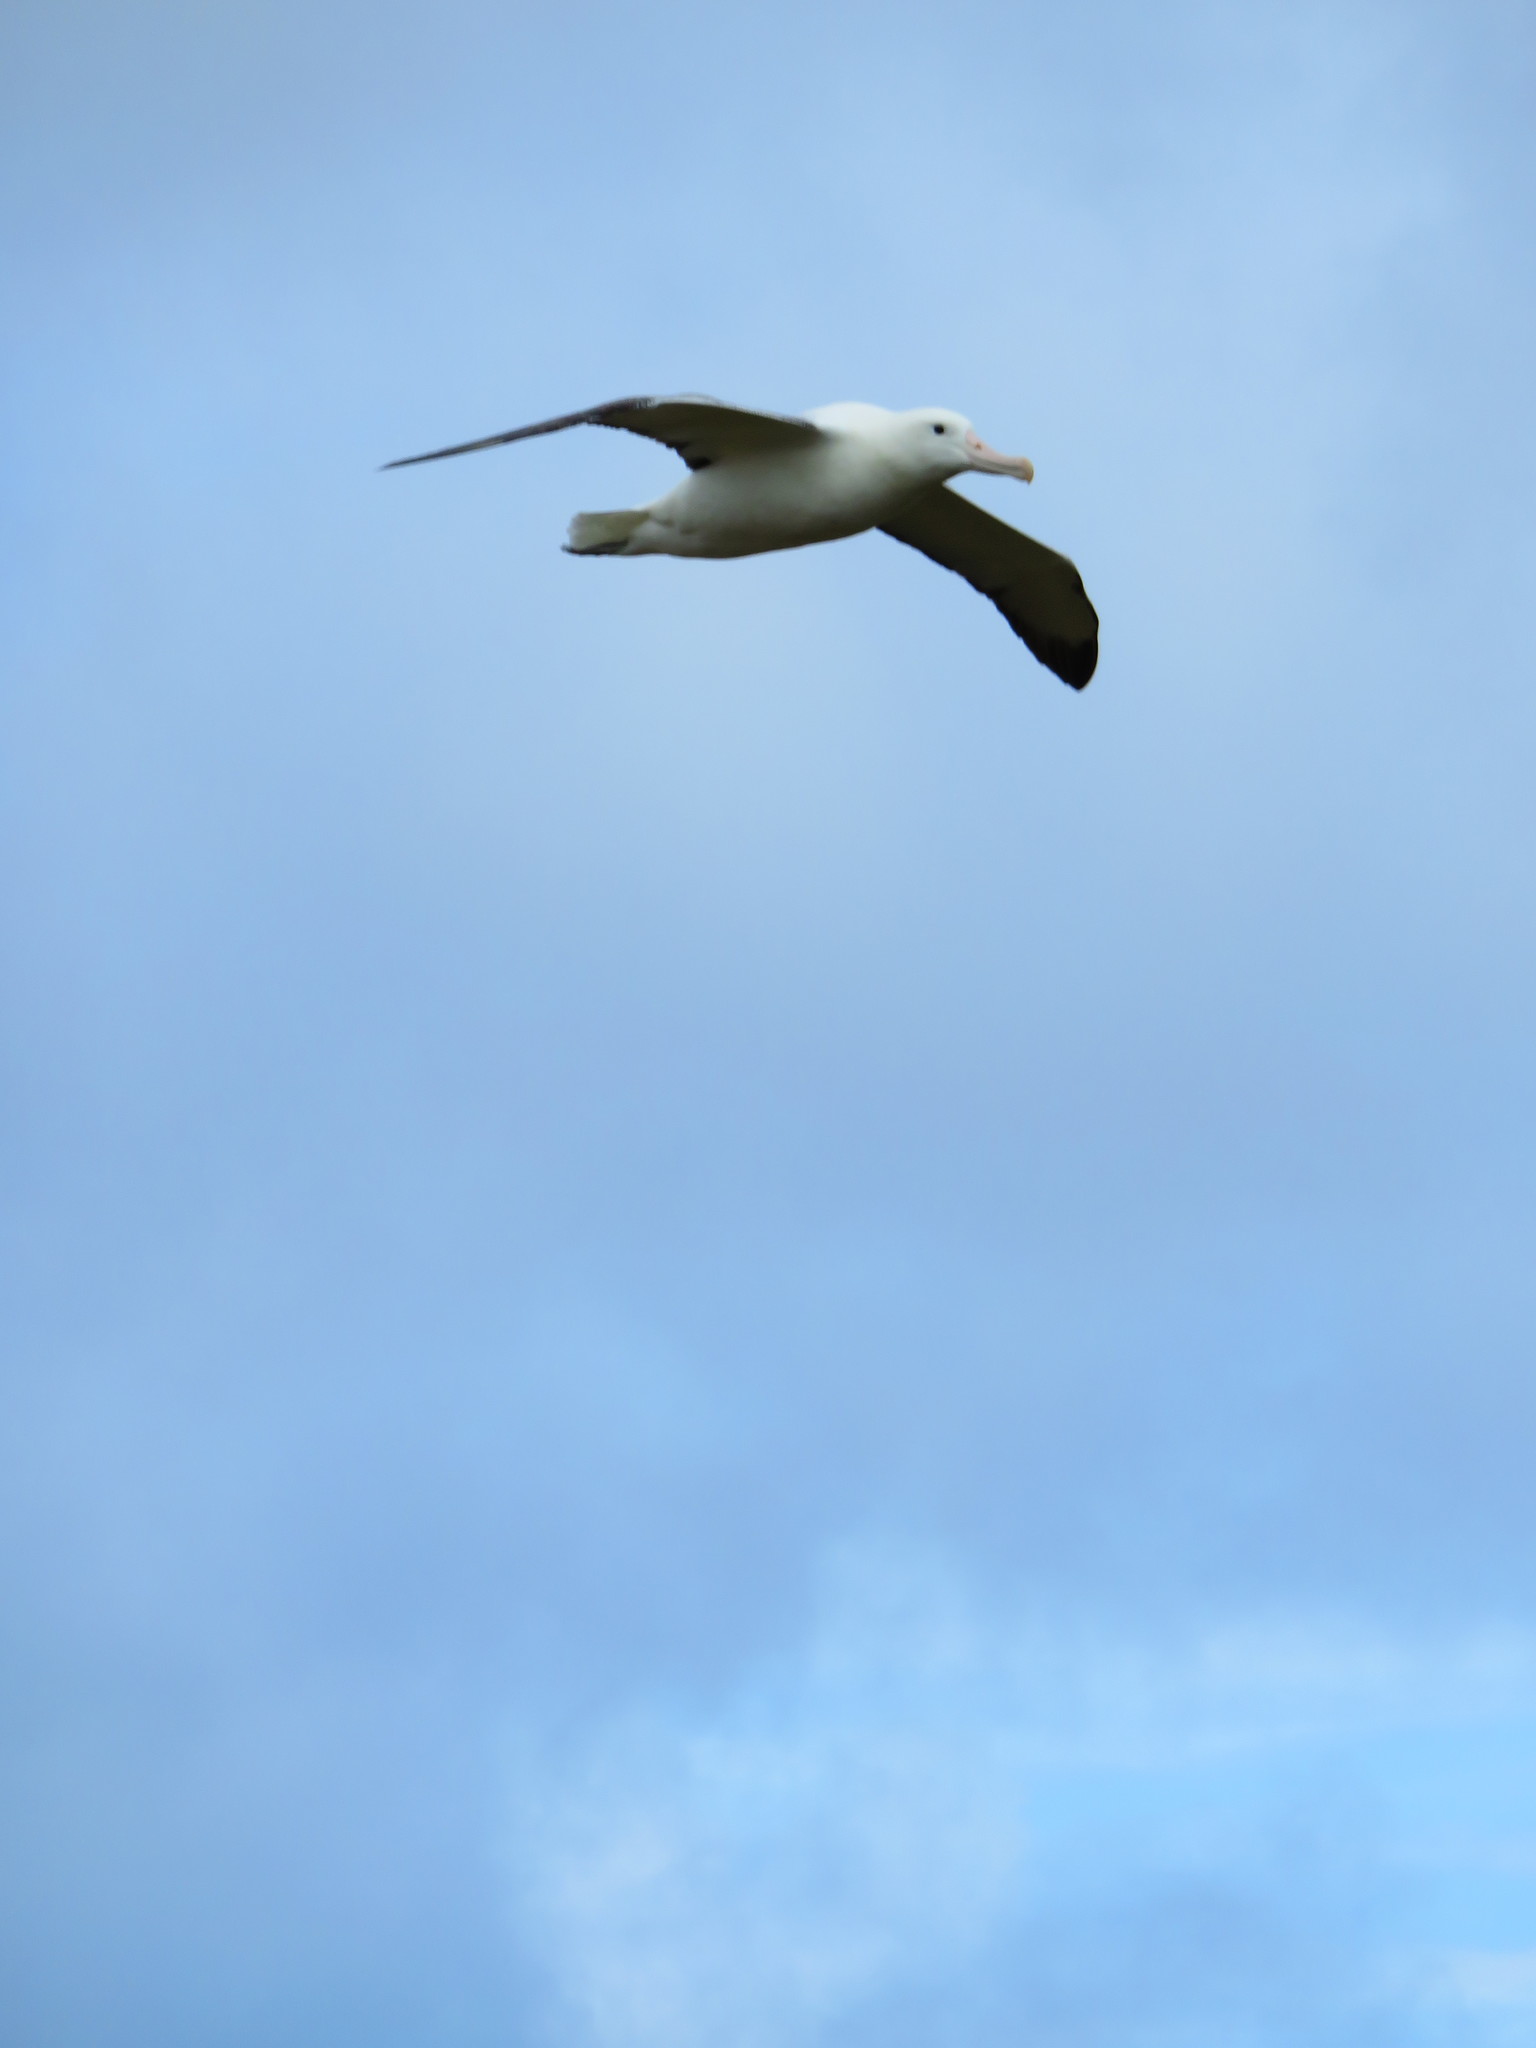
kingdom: Animalia
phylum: Chordata
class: Aves
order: Procellariiformes
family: Diomedeidae
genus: Diomedea
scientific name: Diomedea epomophora
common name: Southern royal albatross
